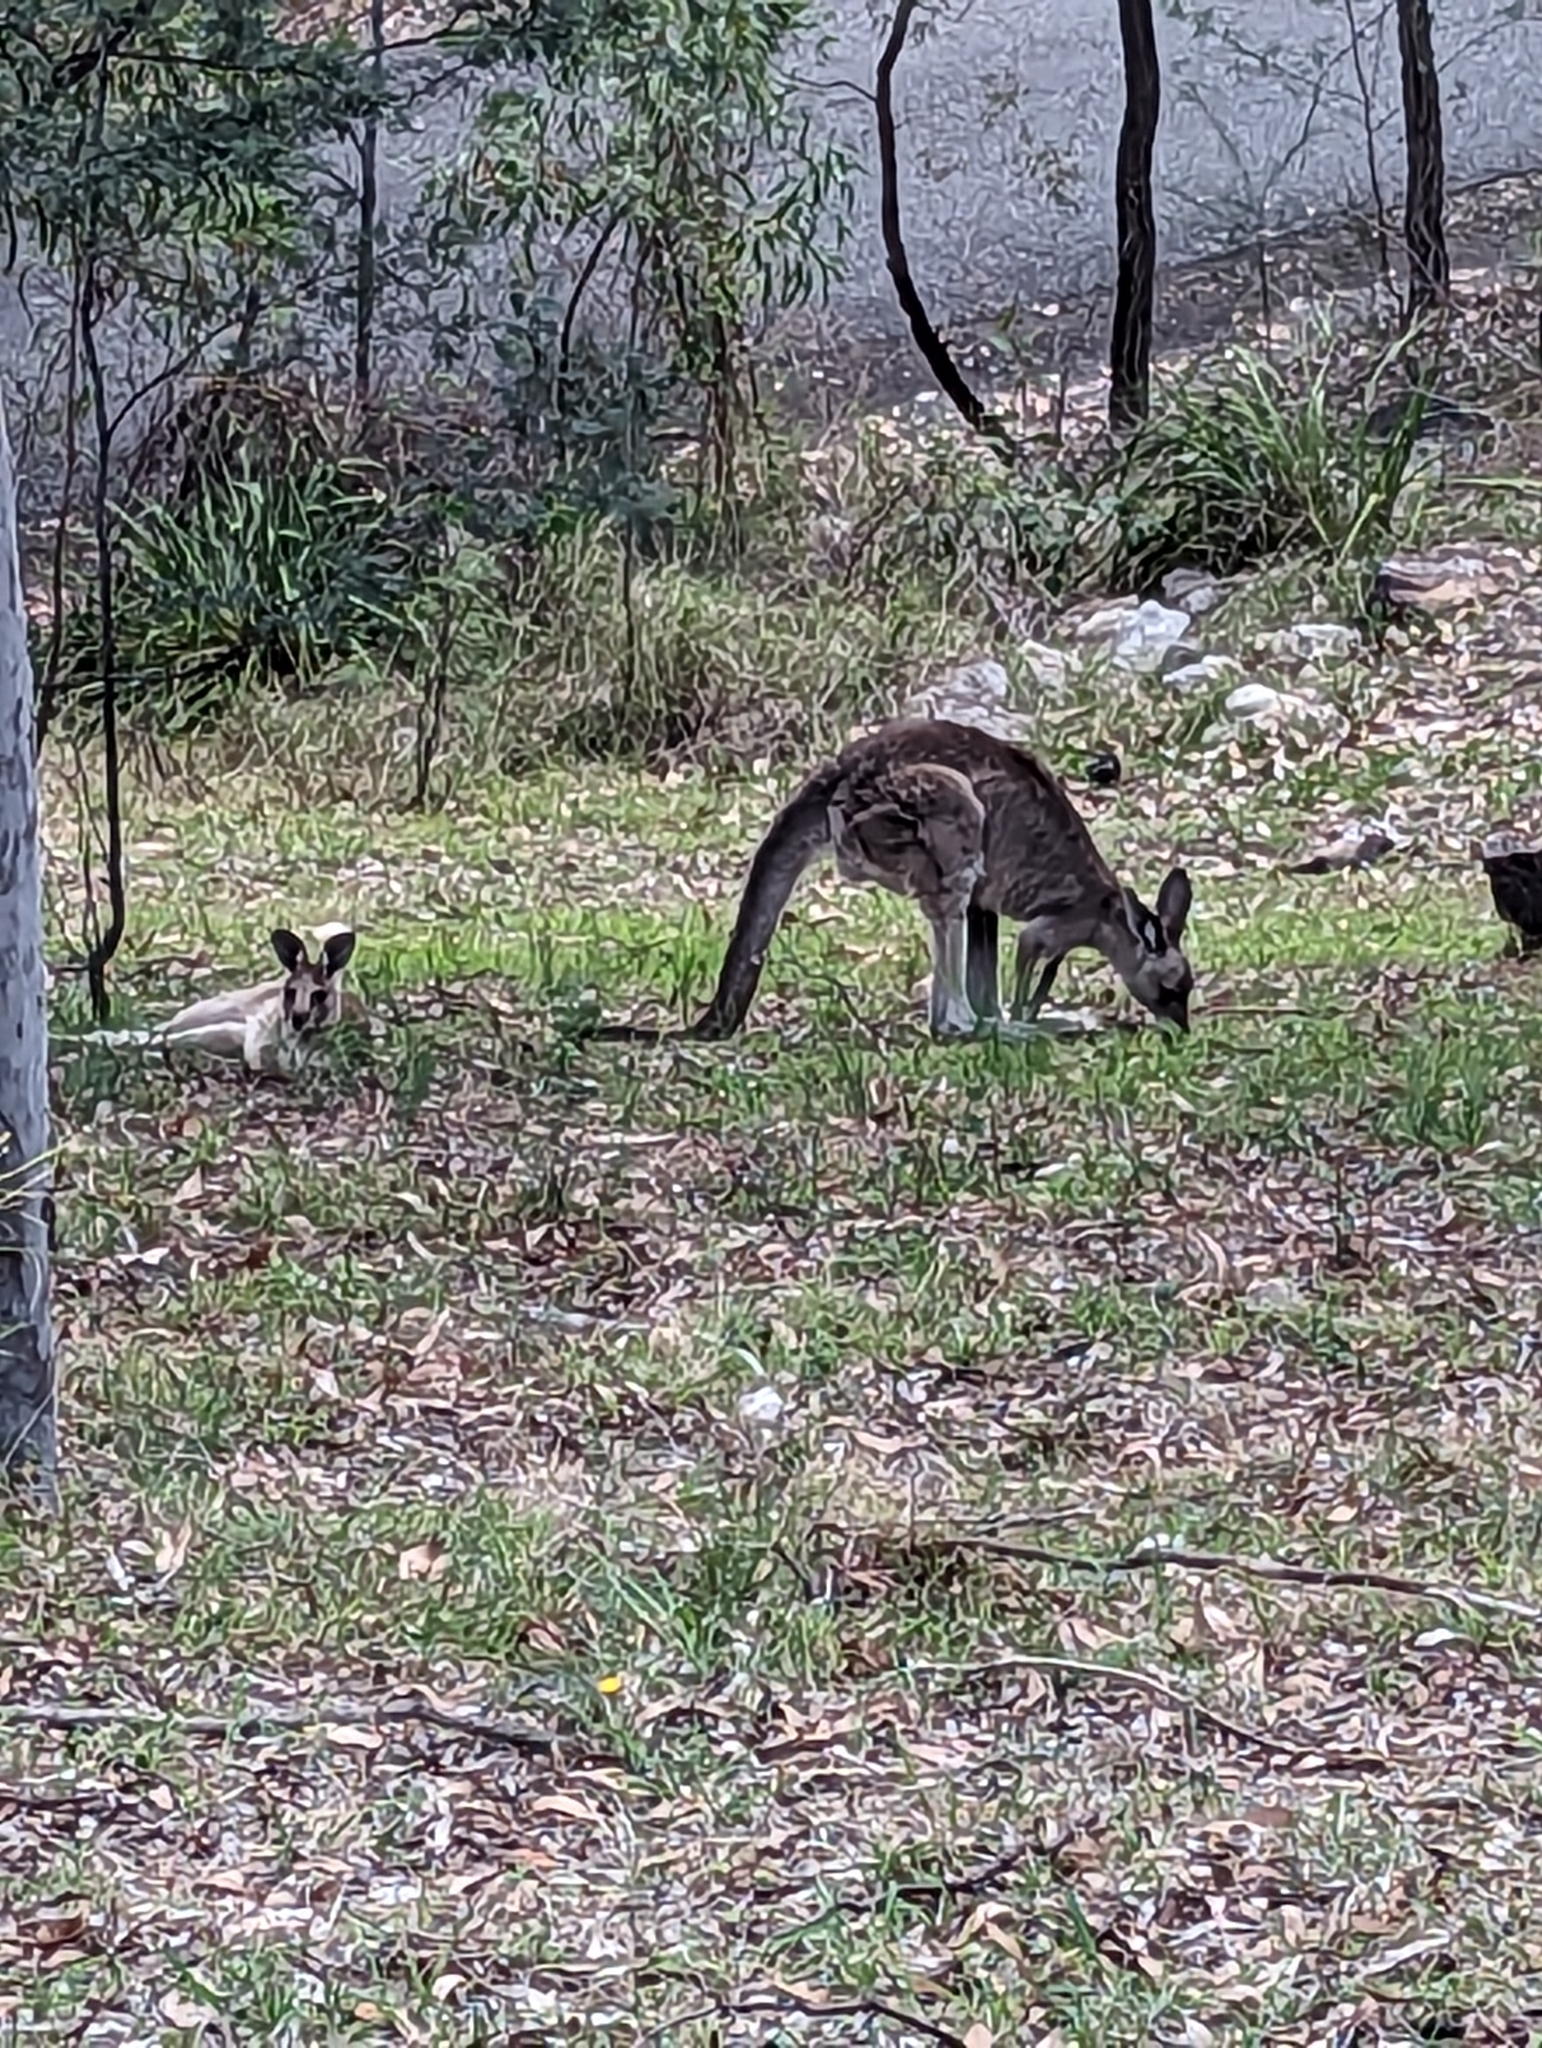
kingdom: Animalia
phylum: Chordata
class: Mammalia
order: Diprotodontia
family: Macropodidae
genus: Macropus
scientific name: Macropus giganteus
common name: Eastern grey kangaroo
